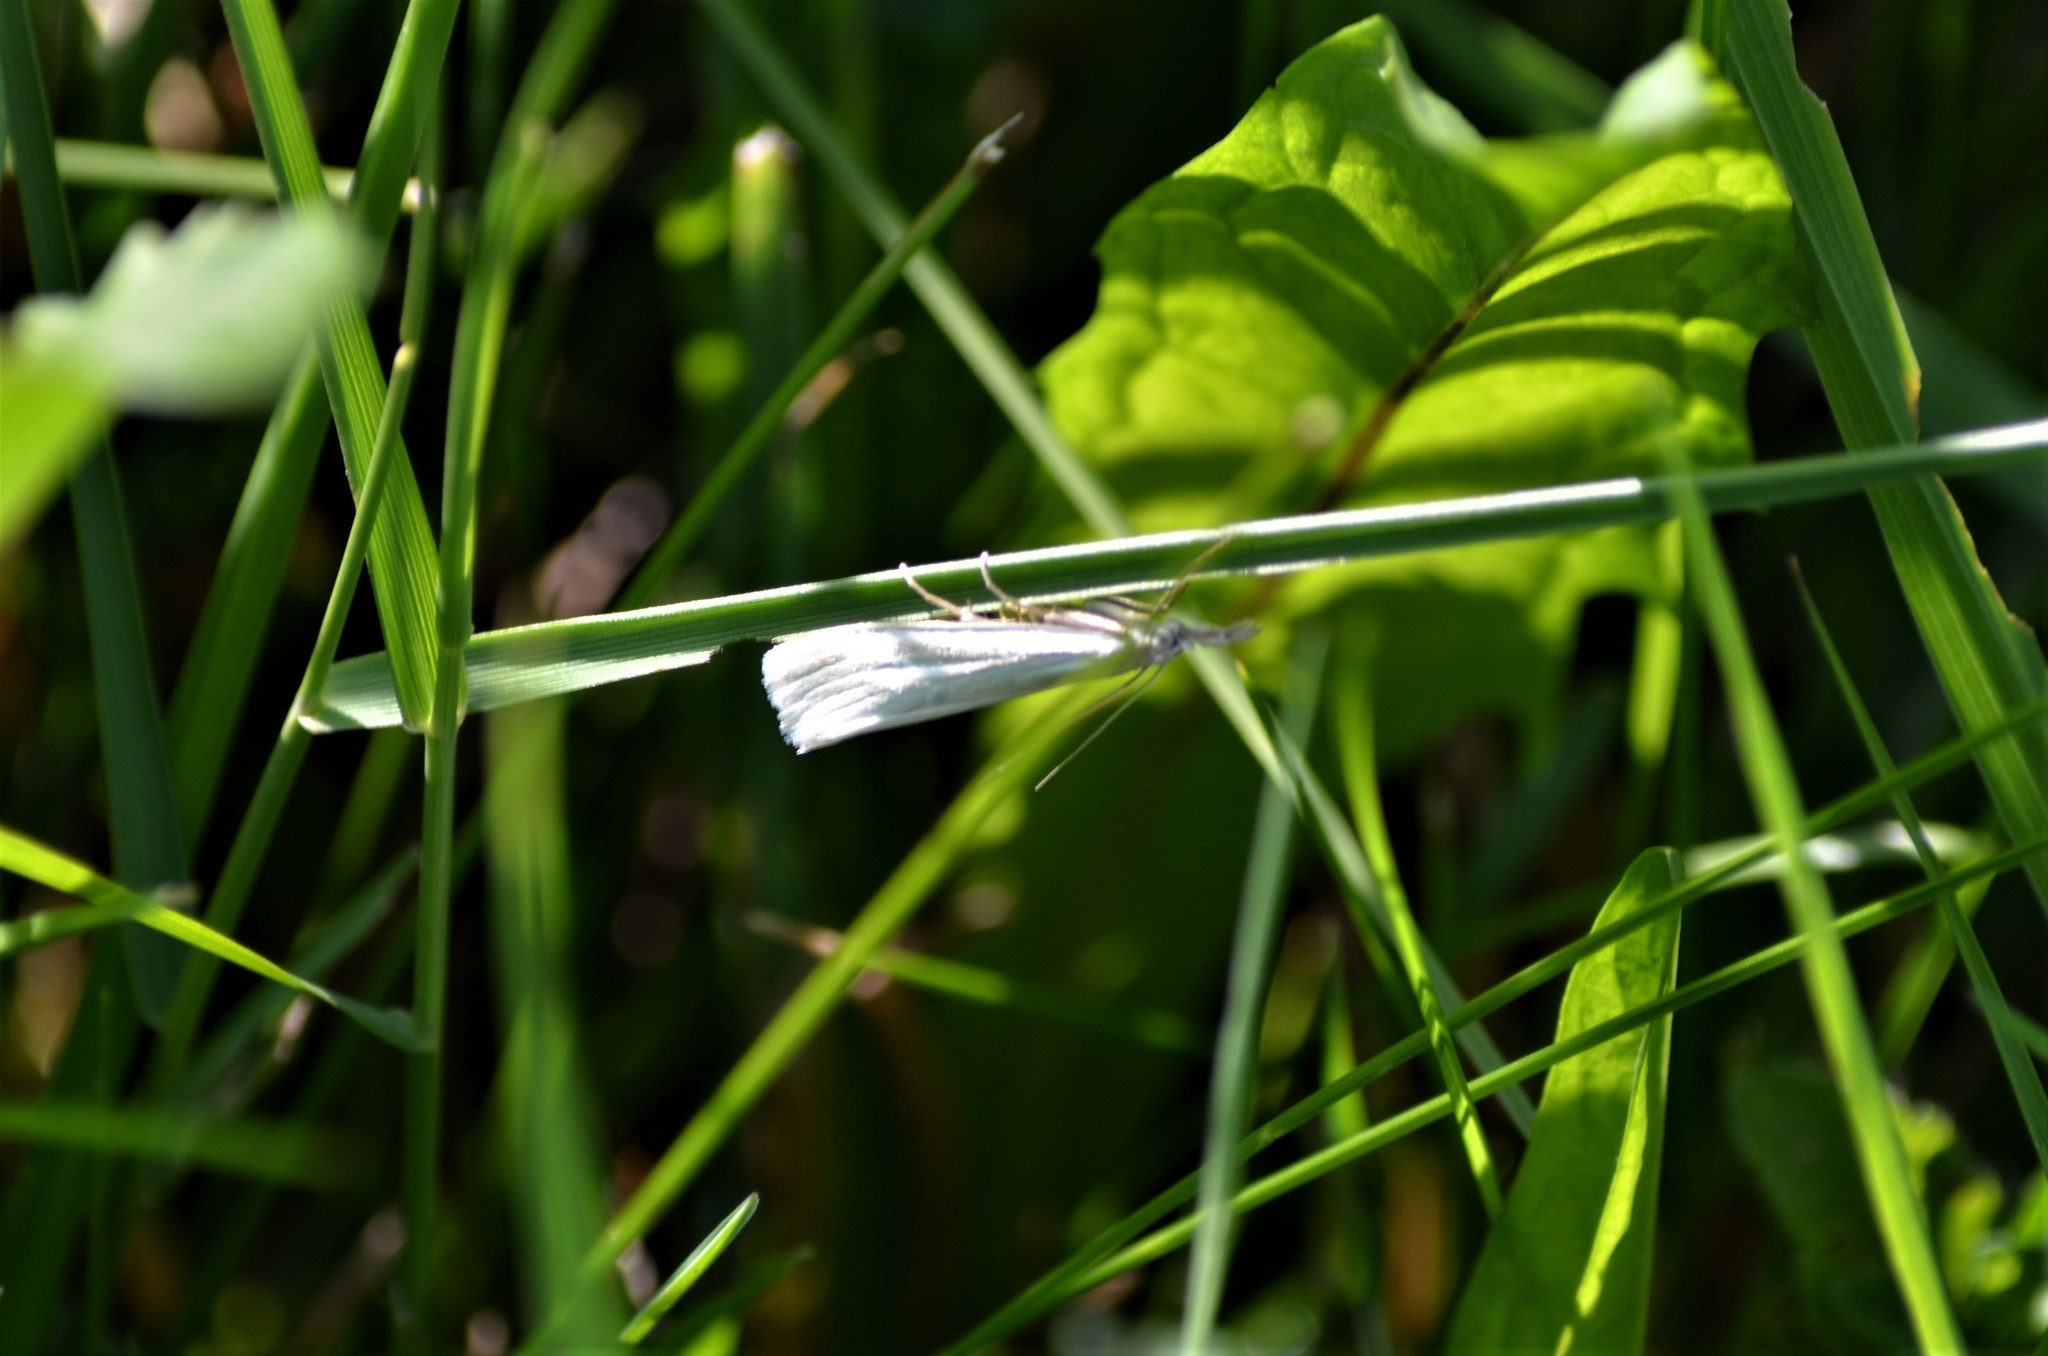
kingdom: Animalia
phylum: Arthropoda
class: Insecta
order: Lepidoptera
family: Crambidae
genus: Crambus
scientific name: Crambus perlellus
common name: Yellow satin veneer
